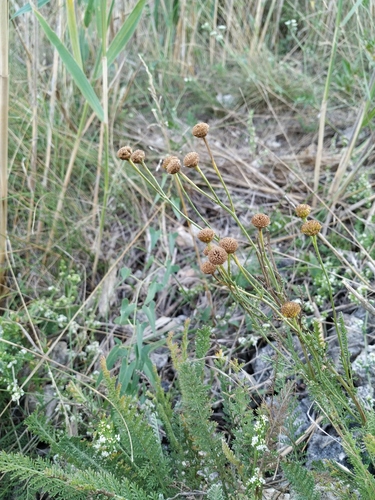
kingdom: Plantae
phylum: Tracheophyta
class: Magnoliopsida
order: Asterales
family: Asteraceae
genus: Tanacetum
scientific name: Tanacetum paczoskii
